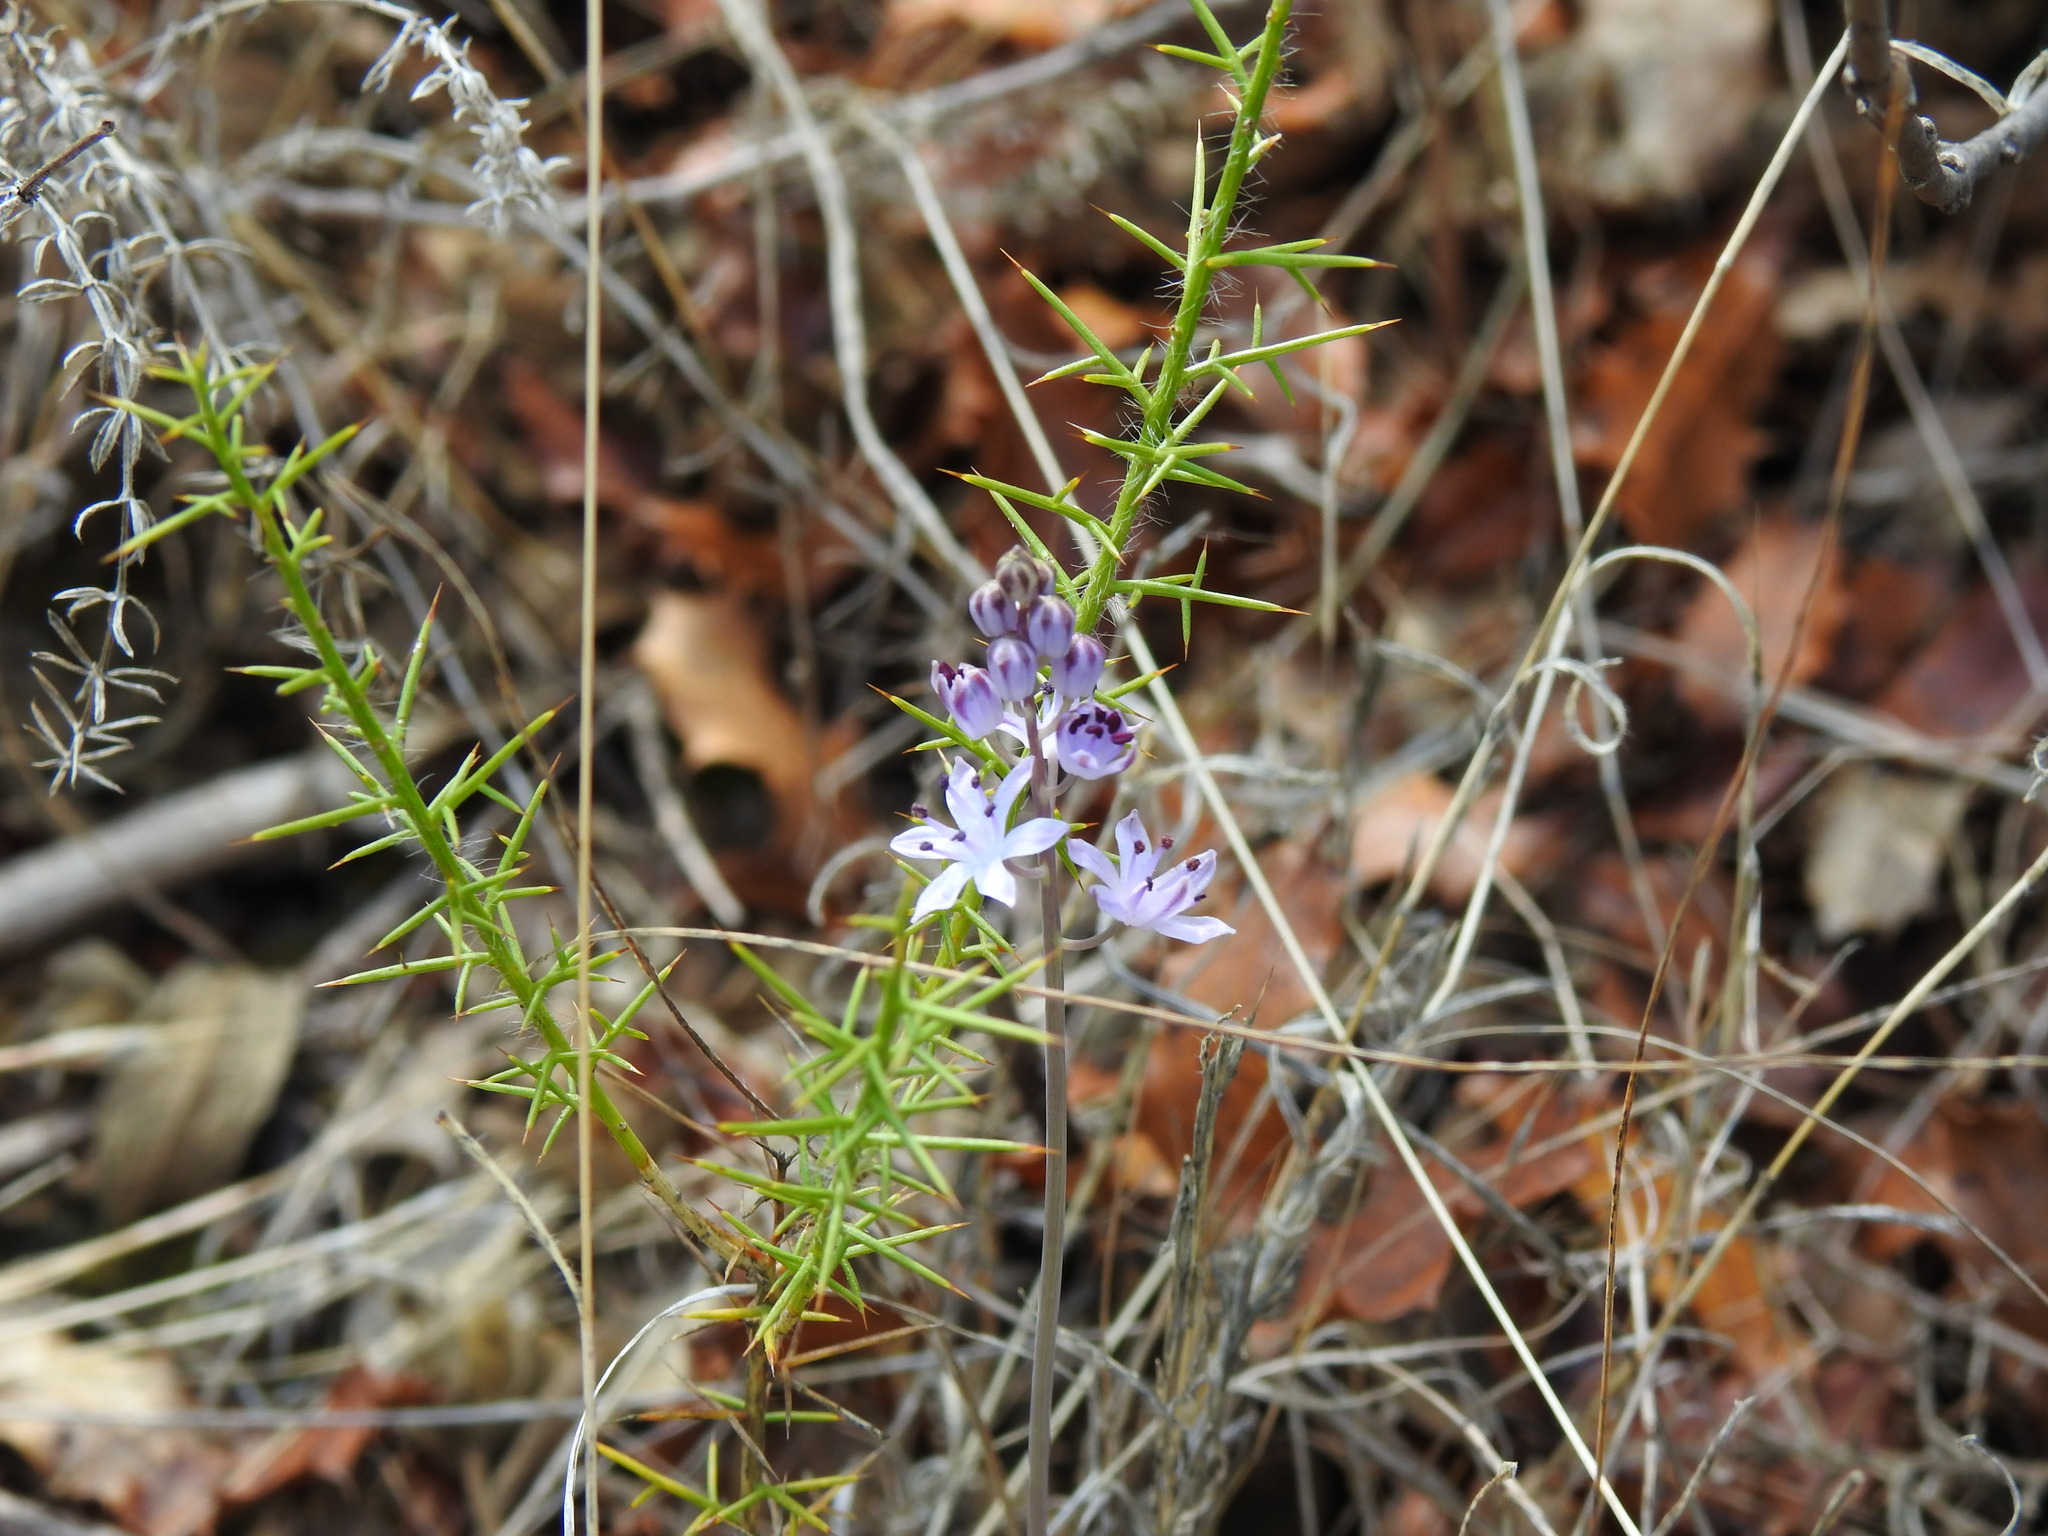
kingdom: Plantae
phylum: Tracheophyta
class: Liliopsida
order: Asparagales
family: Asparagaceae
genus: Prospero
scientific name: Prospero autumnale
